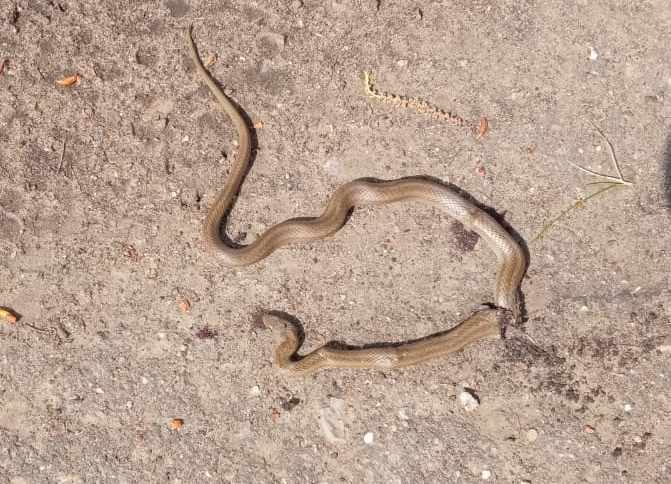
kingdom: Animalia
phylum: Chordata
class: Squamata
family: Colubridae
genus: Coronella
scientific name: Coronella austriaca
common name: Smooth snake
